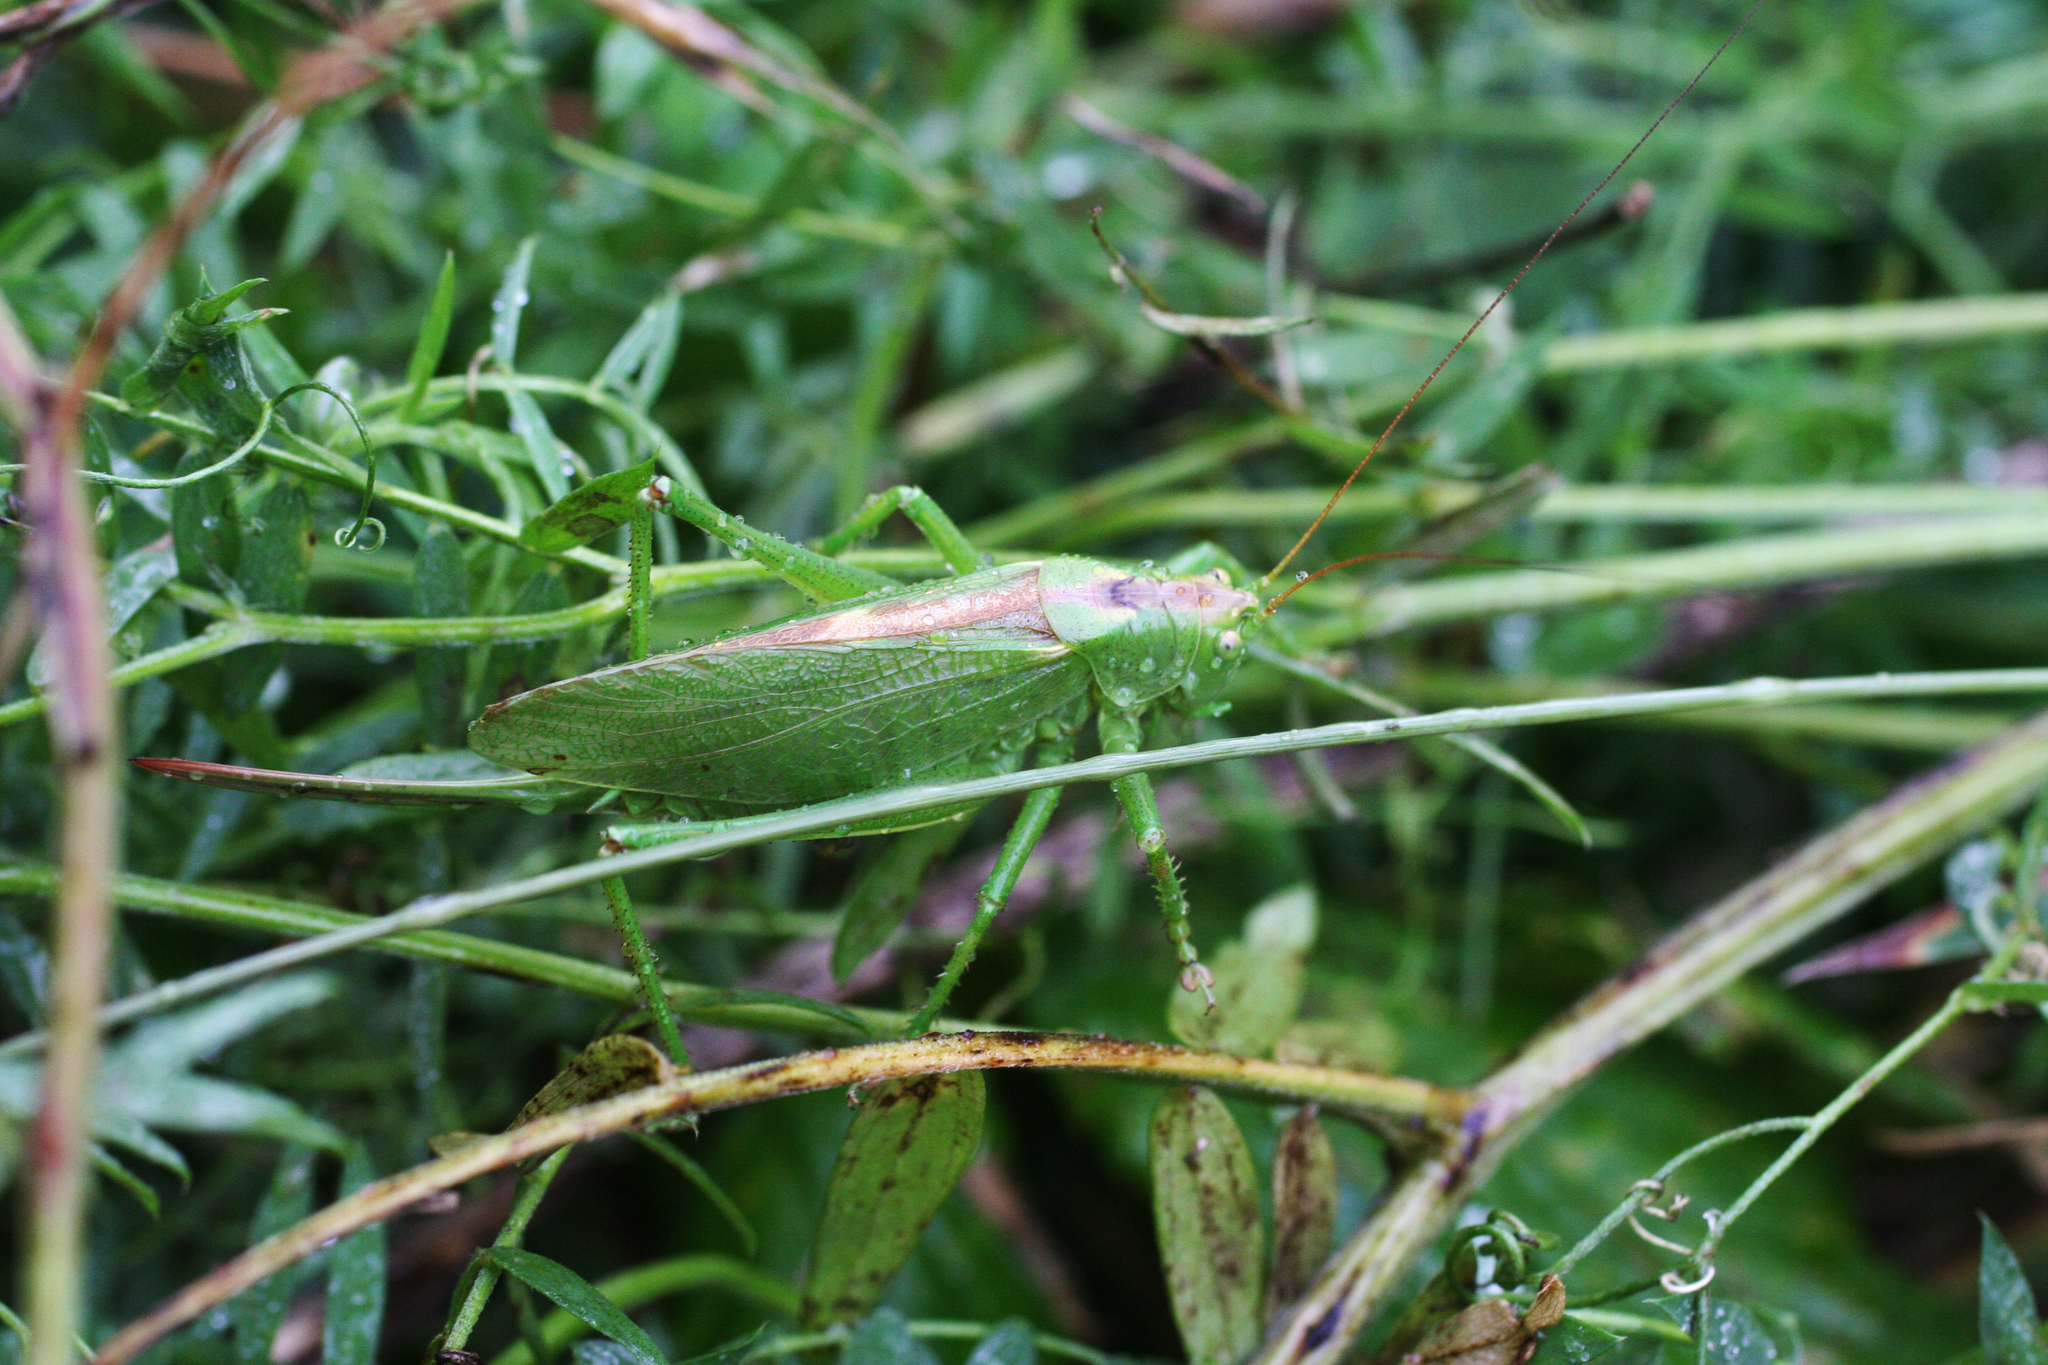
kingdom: Animalia
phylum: Arthropoda
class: Insecta
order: Orthoptera
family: Tettigoniidae
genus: Tettigonia
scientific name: Tettigonia cantans
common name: Upland green bush-cricket
